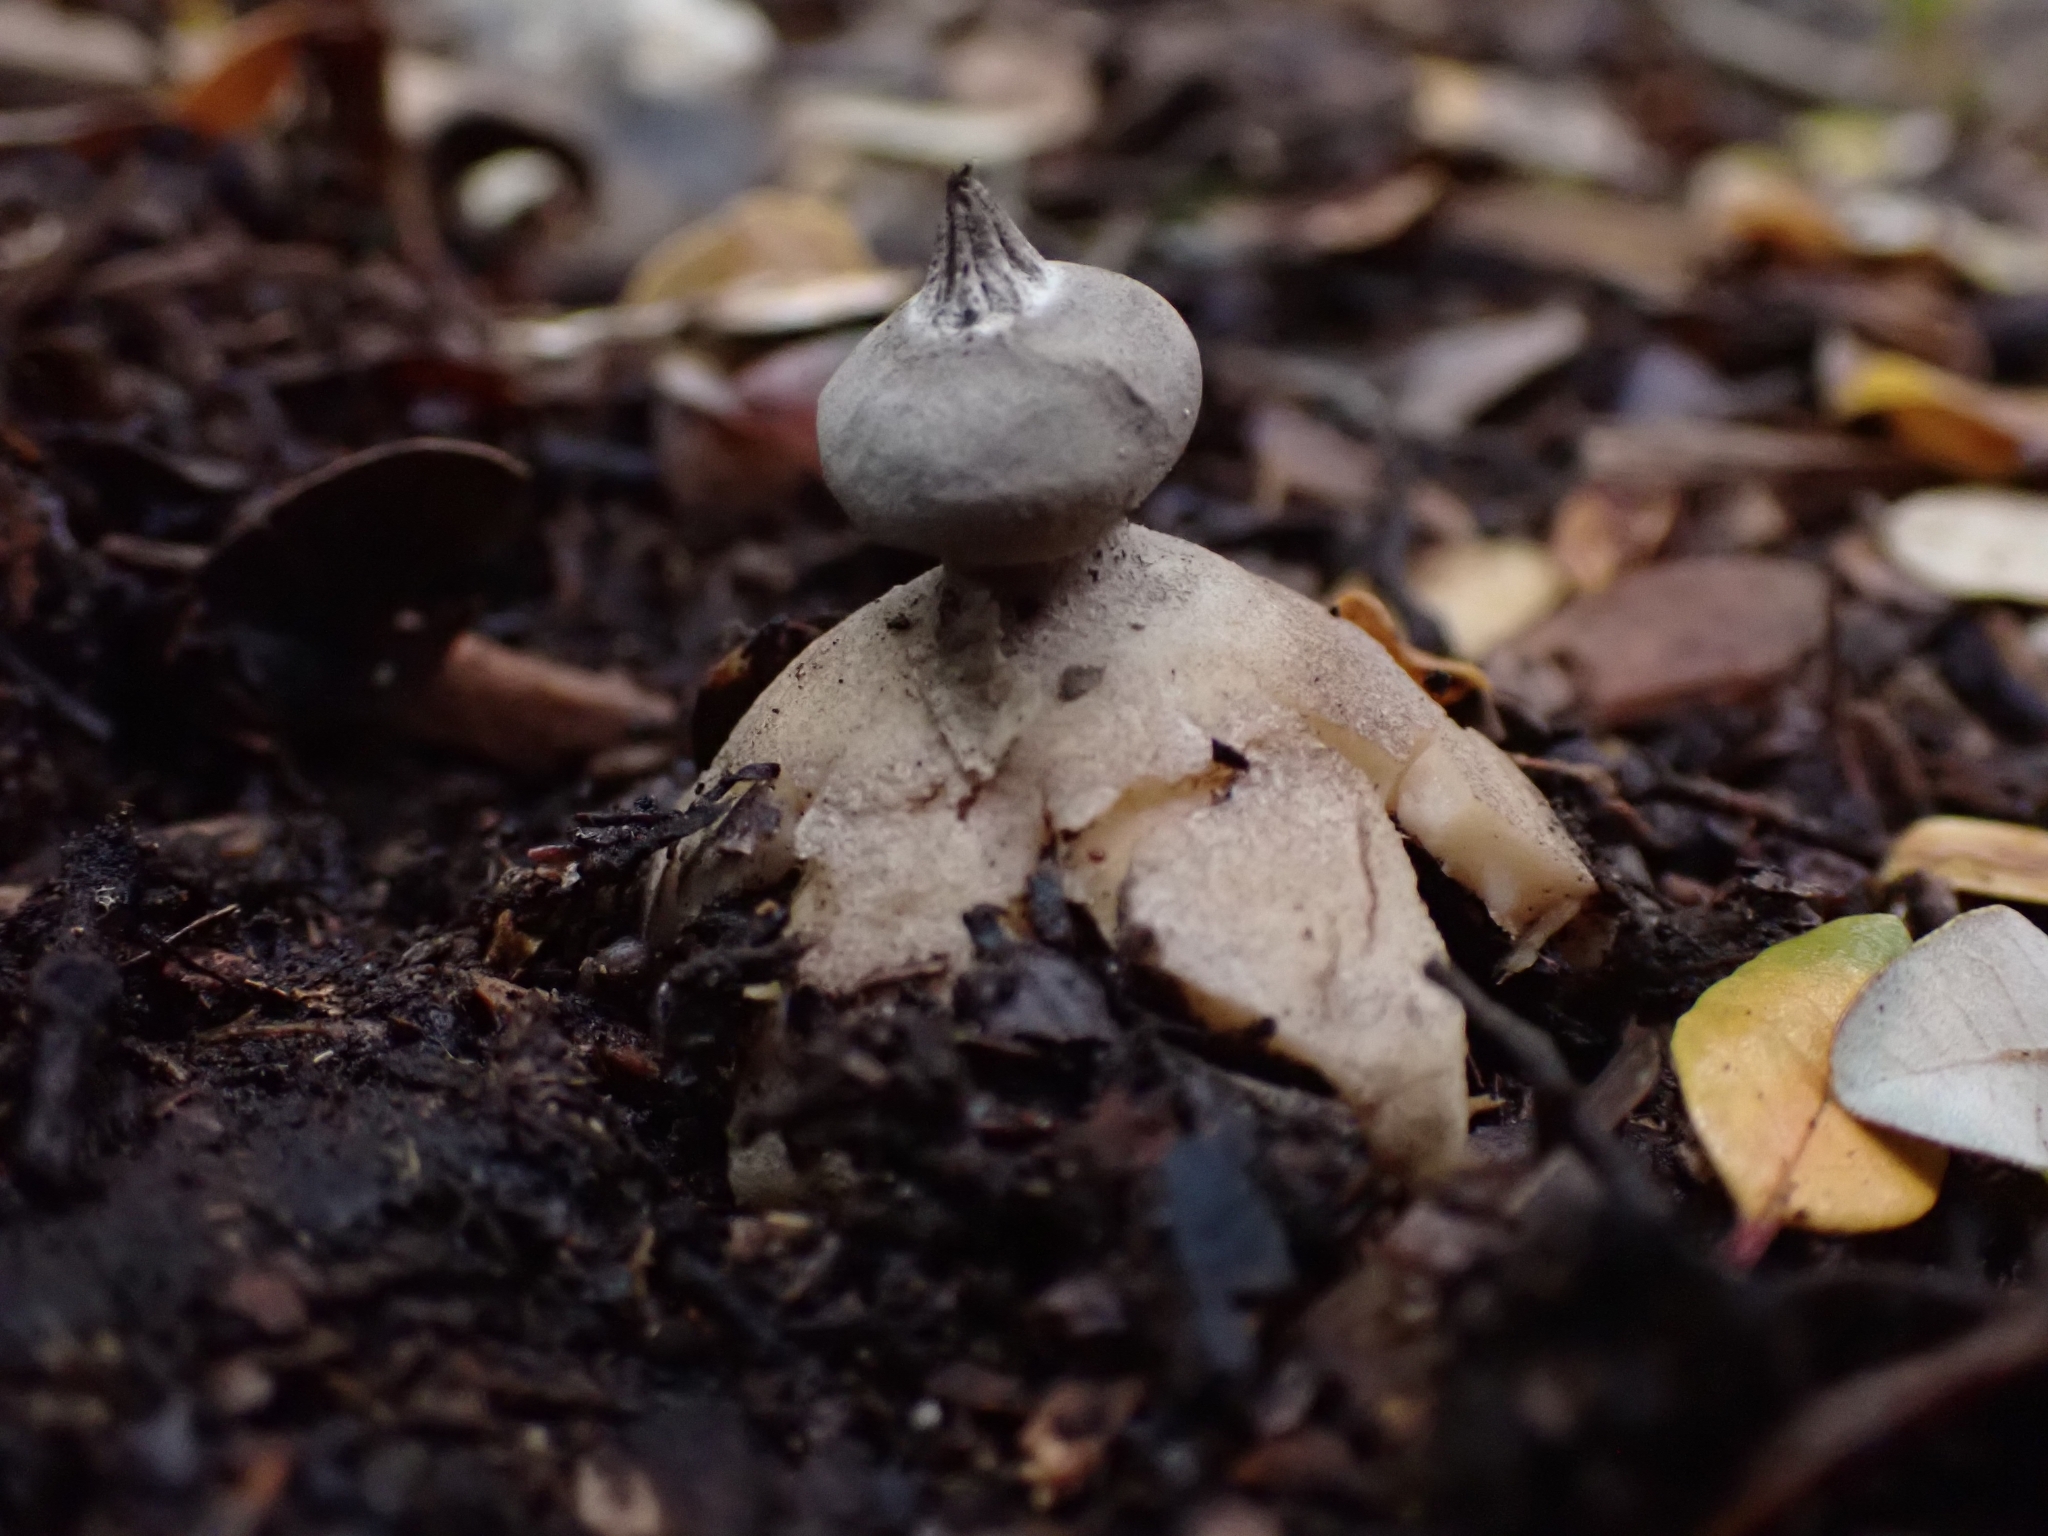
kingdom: Fungi
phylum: Basidiomycota
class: Agaricomycetes
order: Geastrales
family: Geastraceae
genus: Geastrum
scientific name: Geastrum pectinatum
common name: Beaked earthstar
